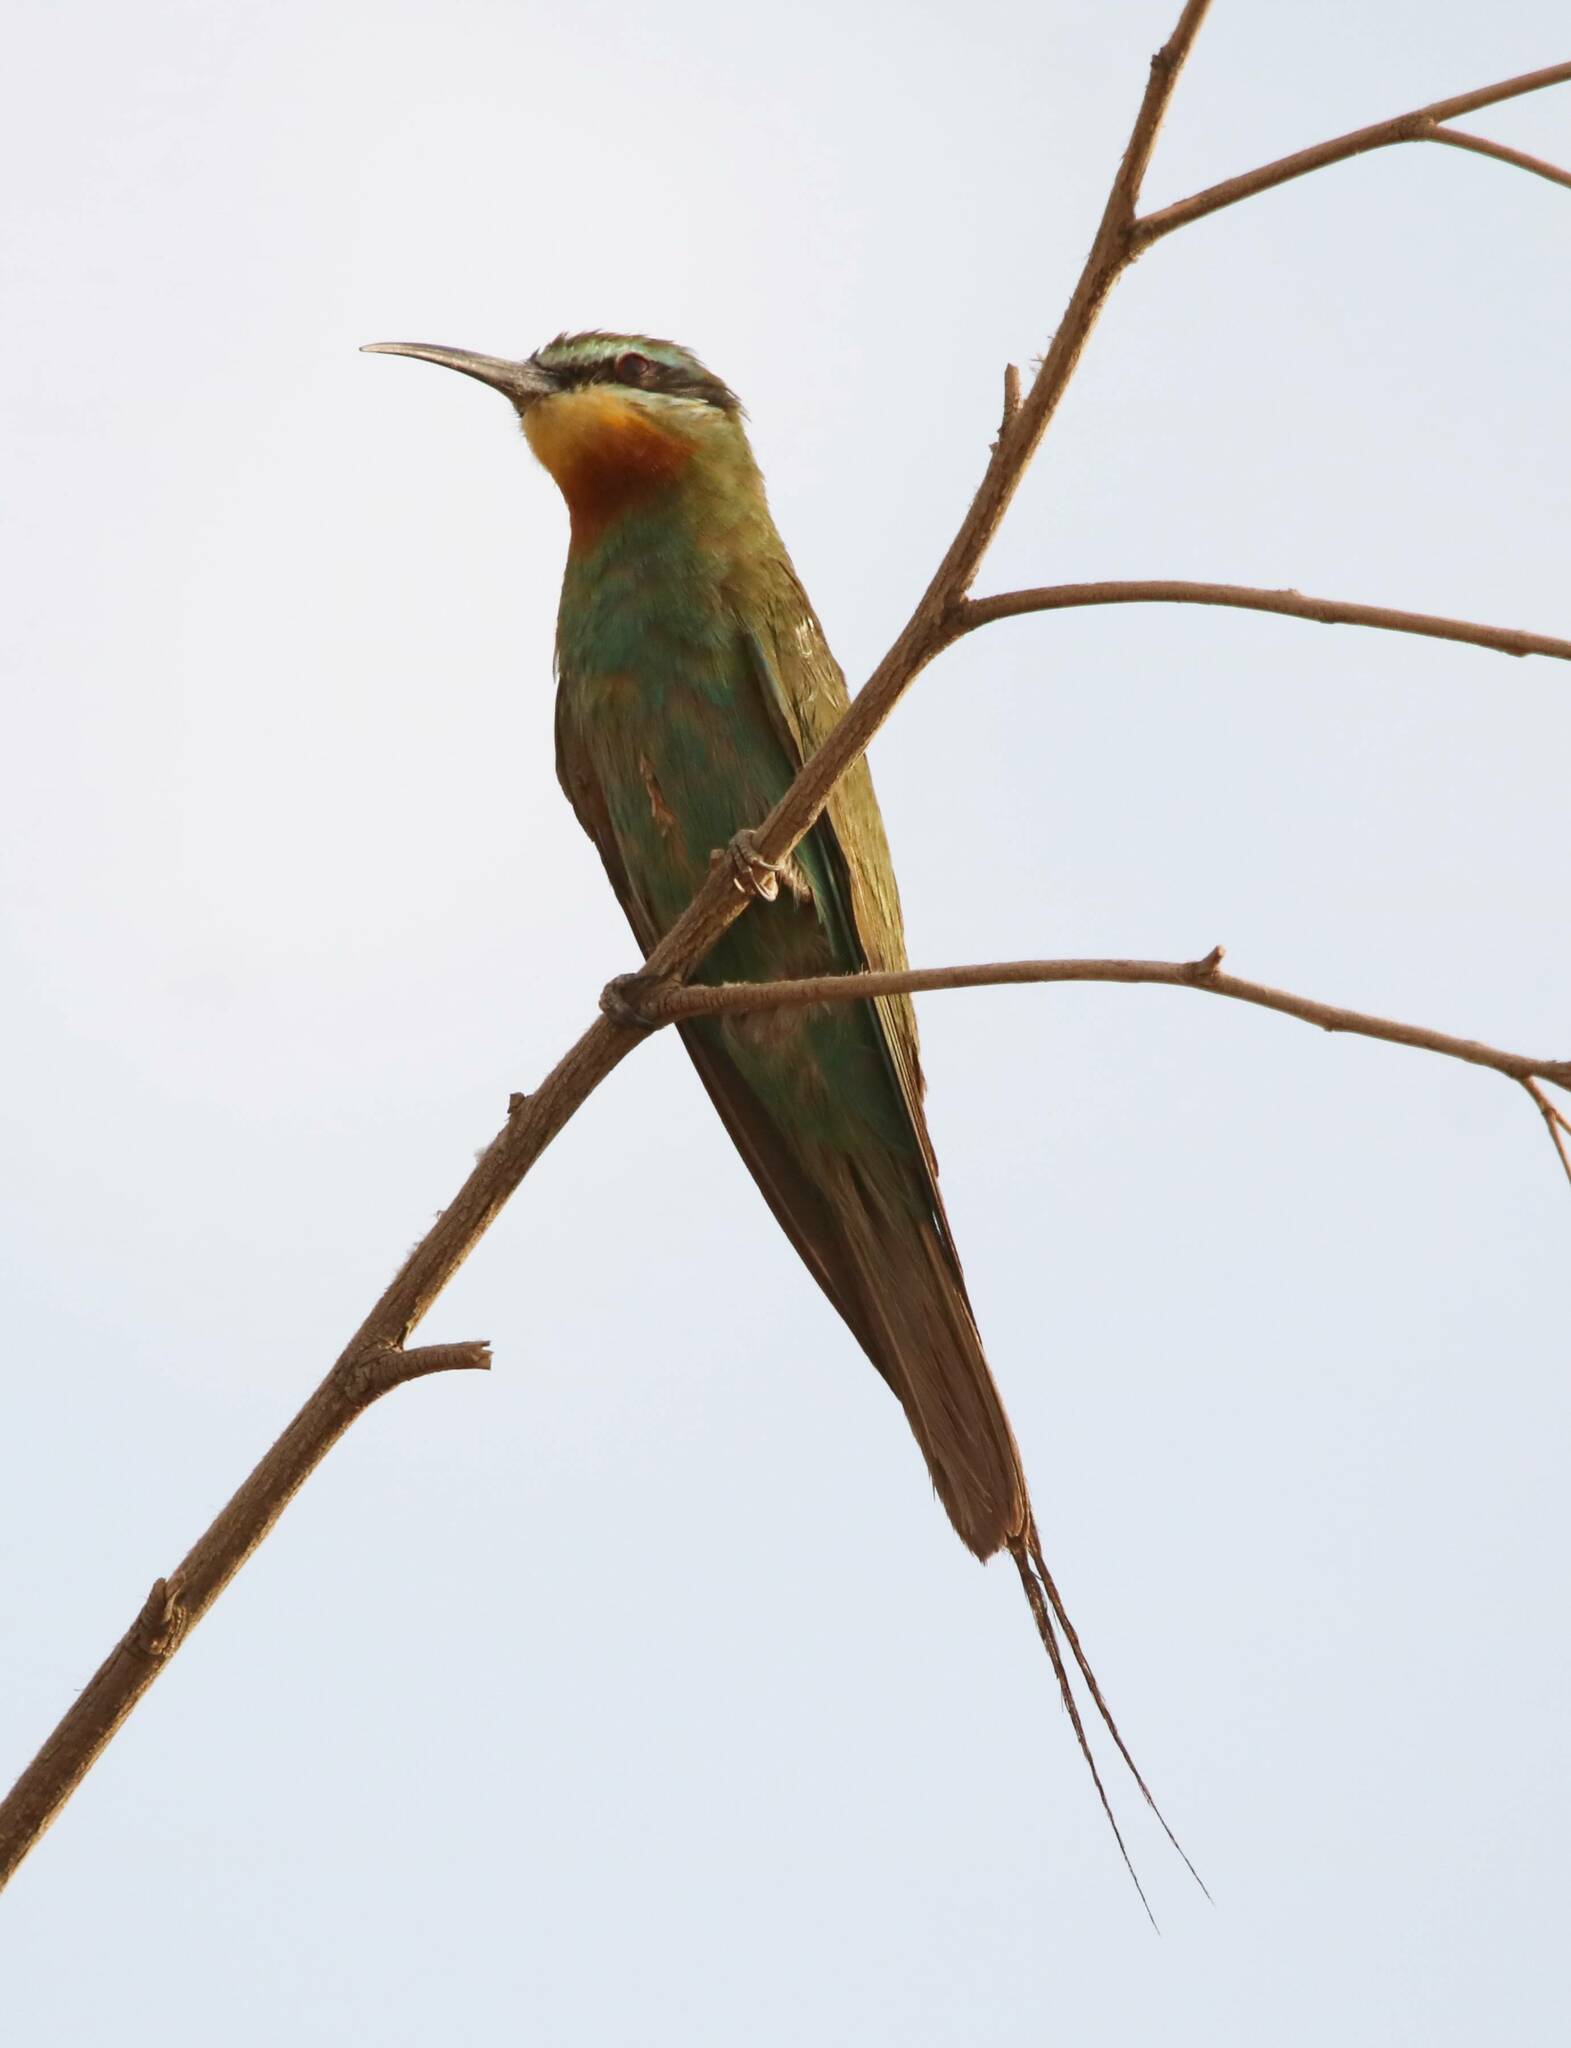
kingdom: Animalia
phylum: Chordata
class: Aves
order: Coraciiformes
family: Meropidae
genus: Merops
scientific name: Merops persicus
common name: Blue-cheeked bee-eater
